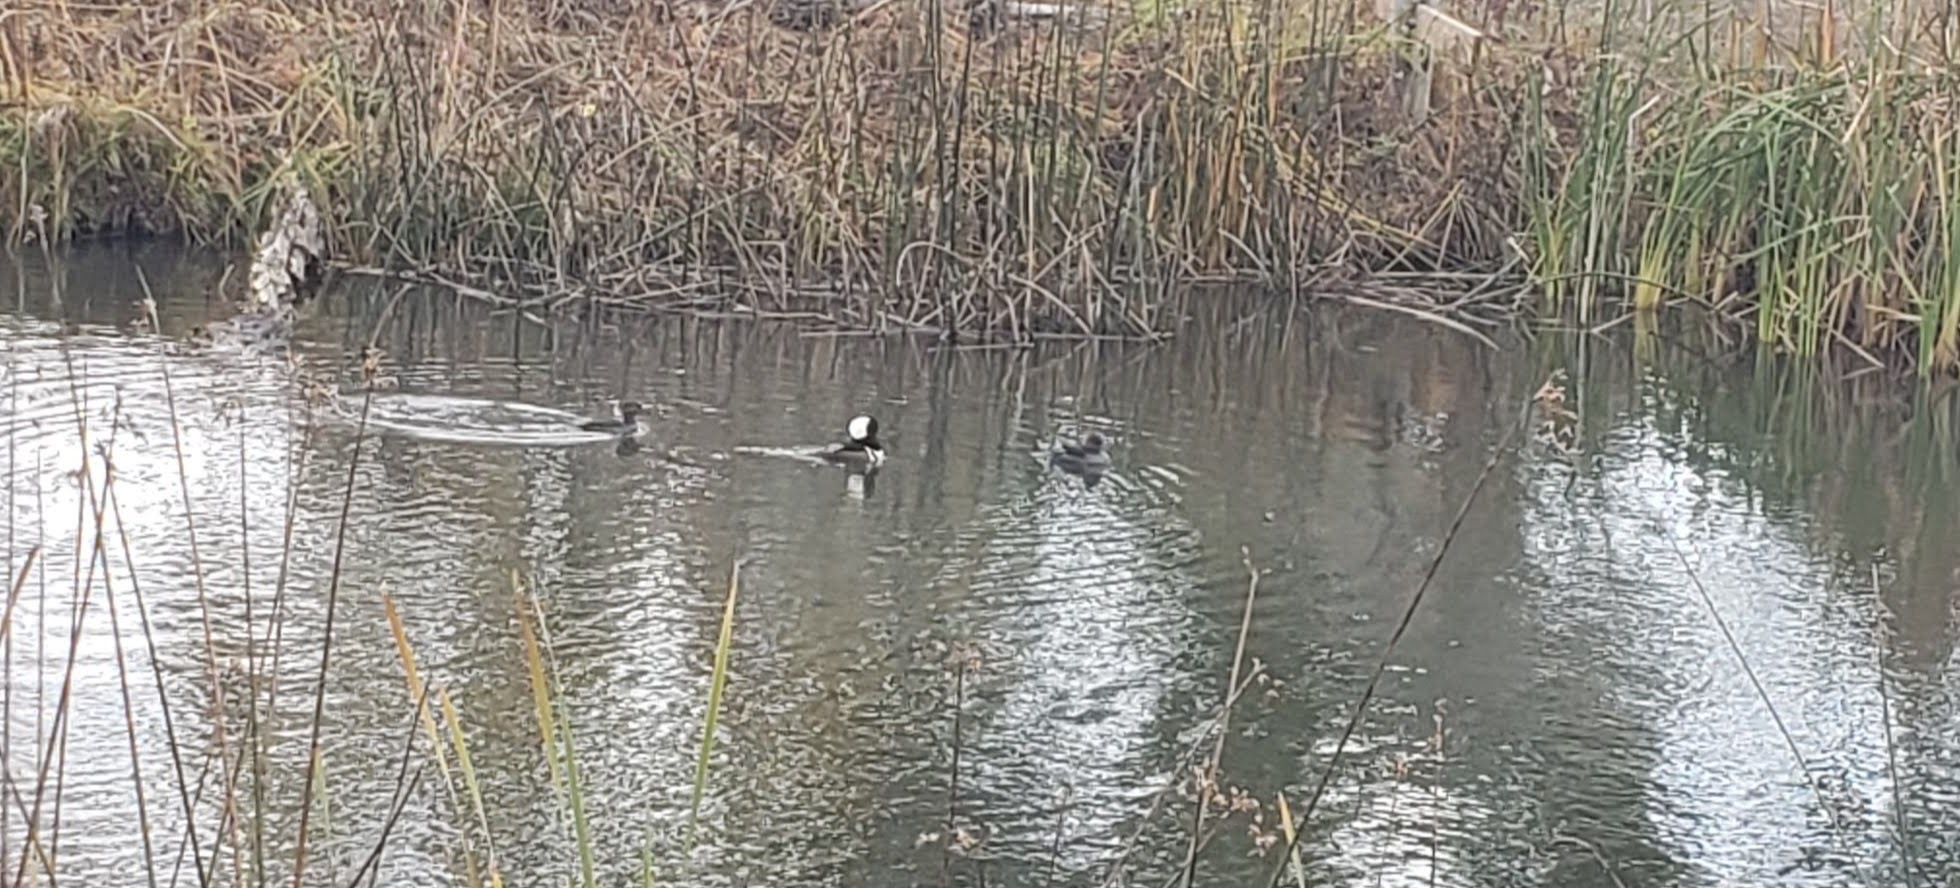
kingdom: Animalia
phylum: Chordata
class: Aves
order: Anseriformes
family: Anatidae
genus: Lophodytes
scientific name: Lophodytes cucullatus
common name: Hooded merganser
